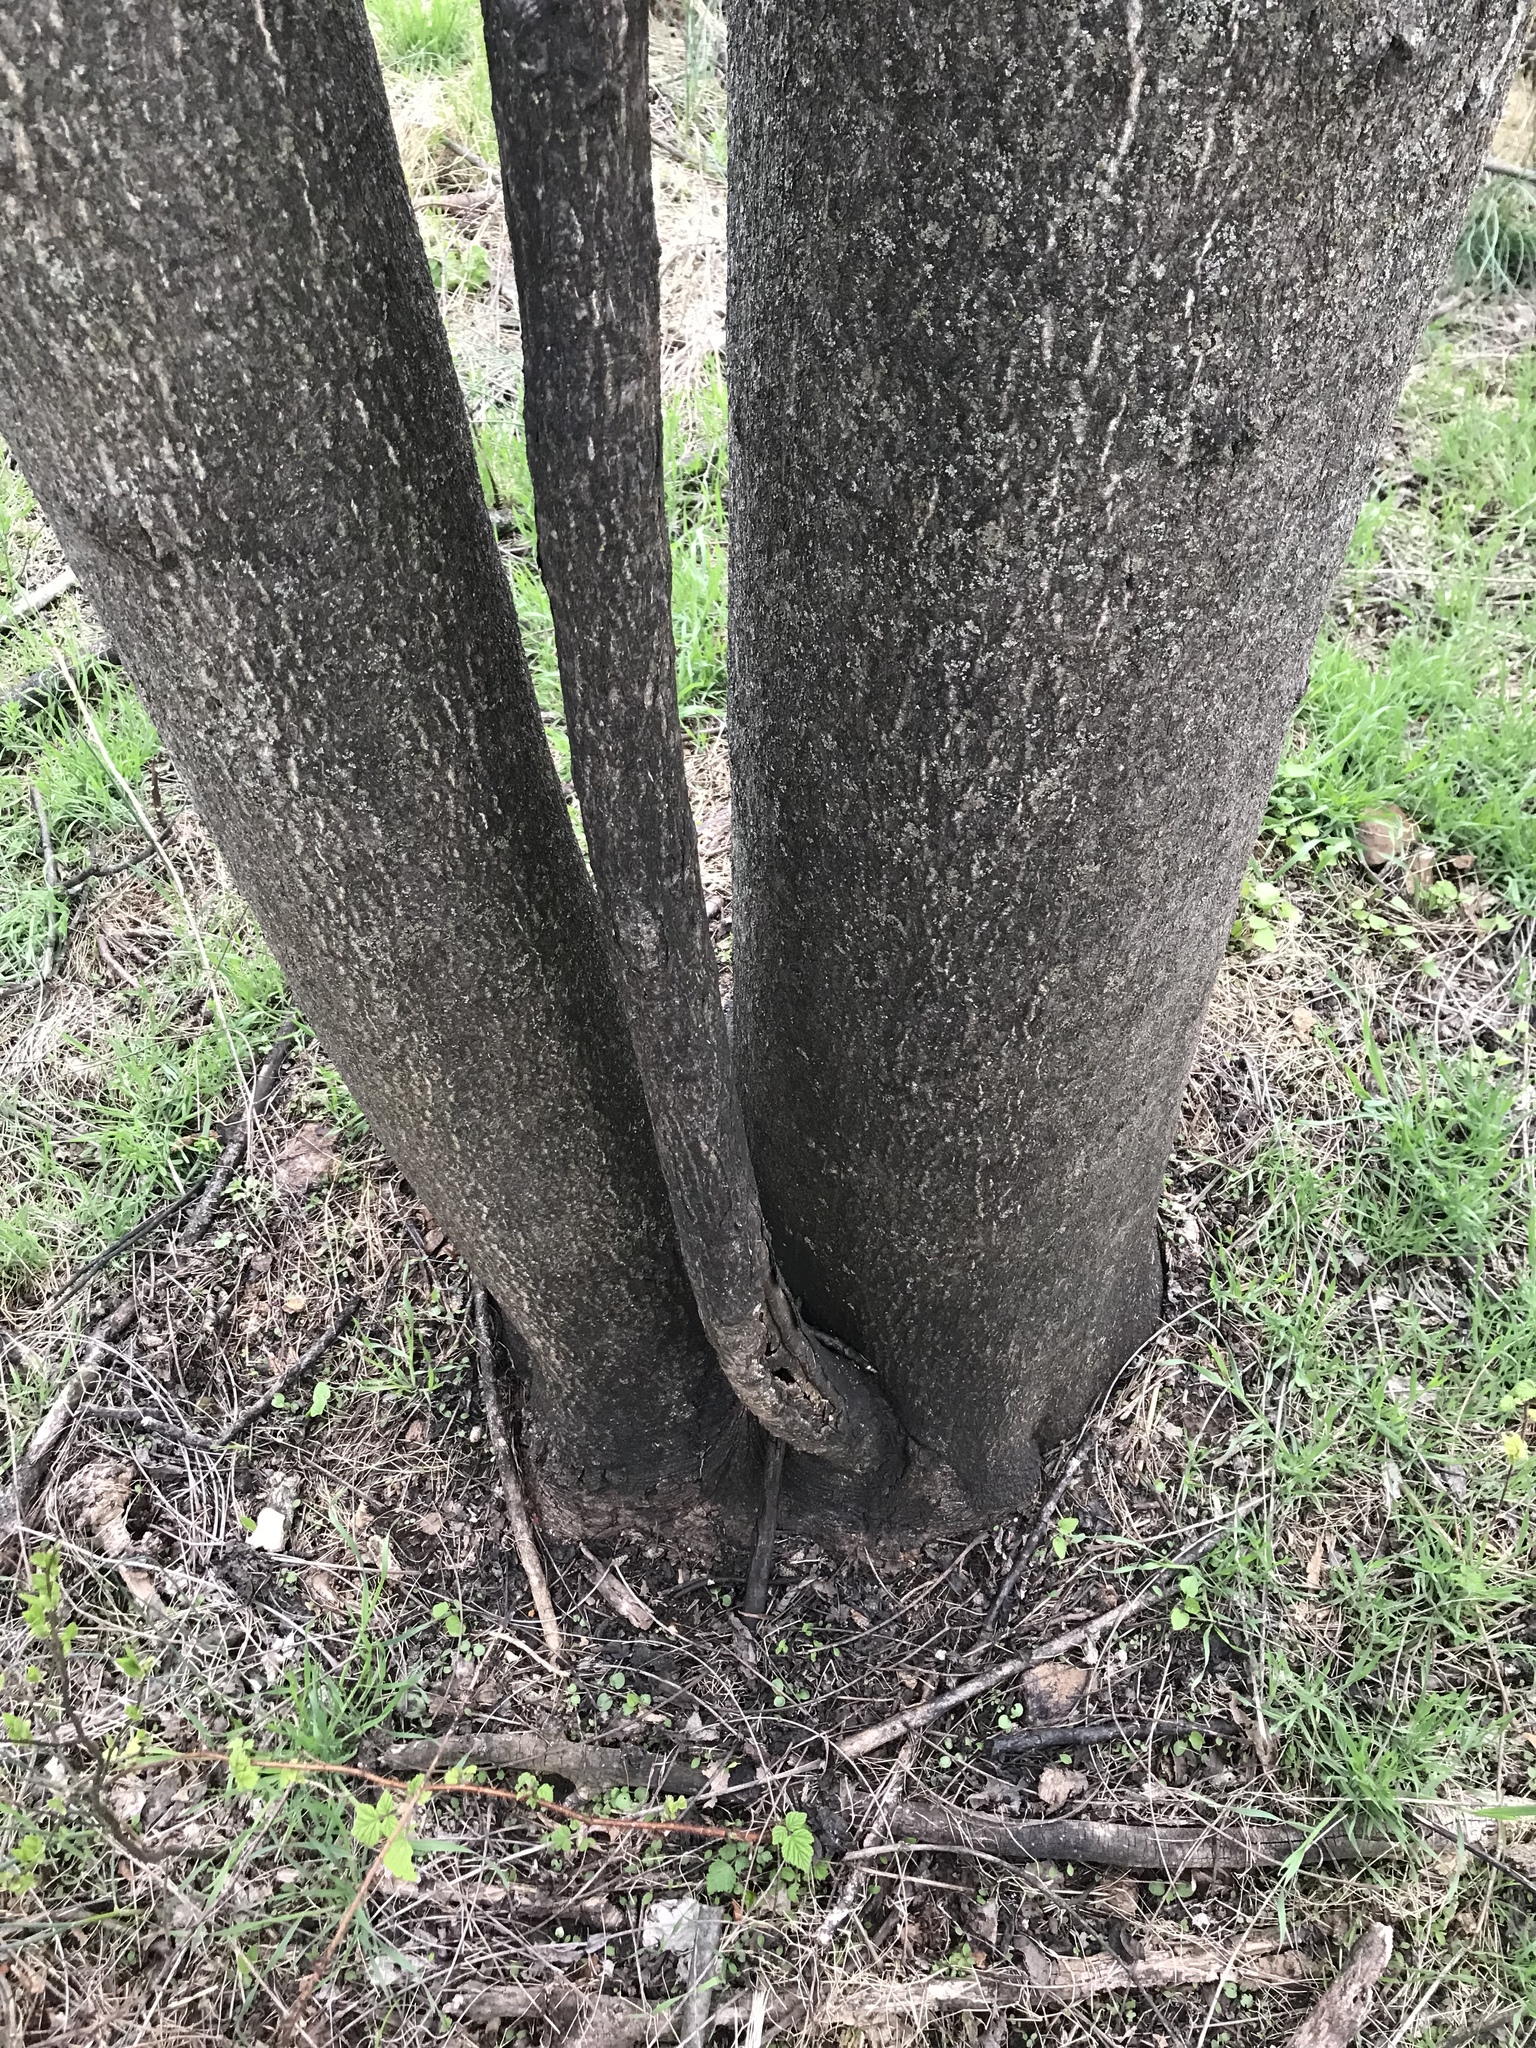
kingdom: Plantae
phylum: Tracheophyta
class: Magnoliopsida
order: Sapindales
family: Simaroubaceae
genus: Ailanthus
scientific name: Ailanthus altissima
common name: Tree-of-heaven
